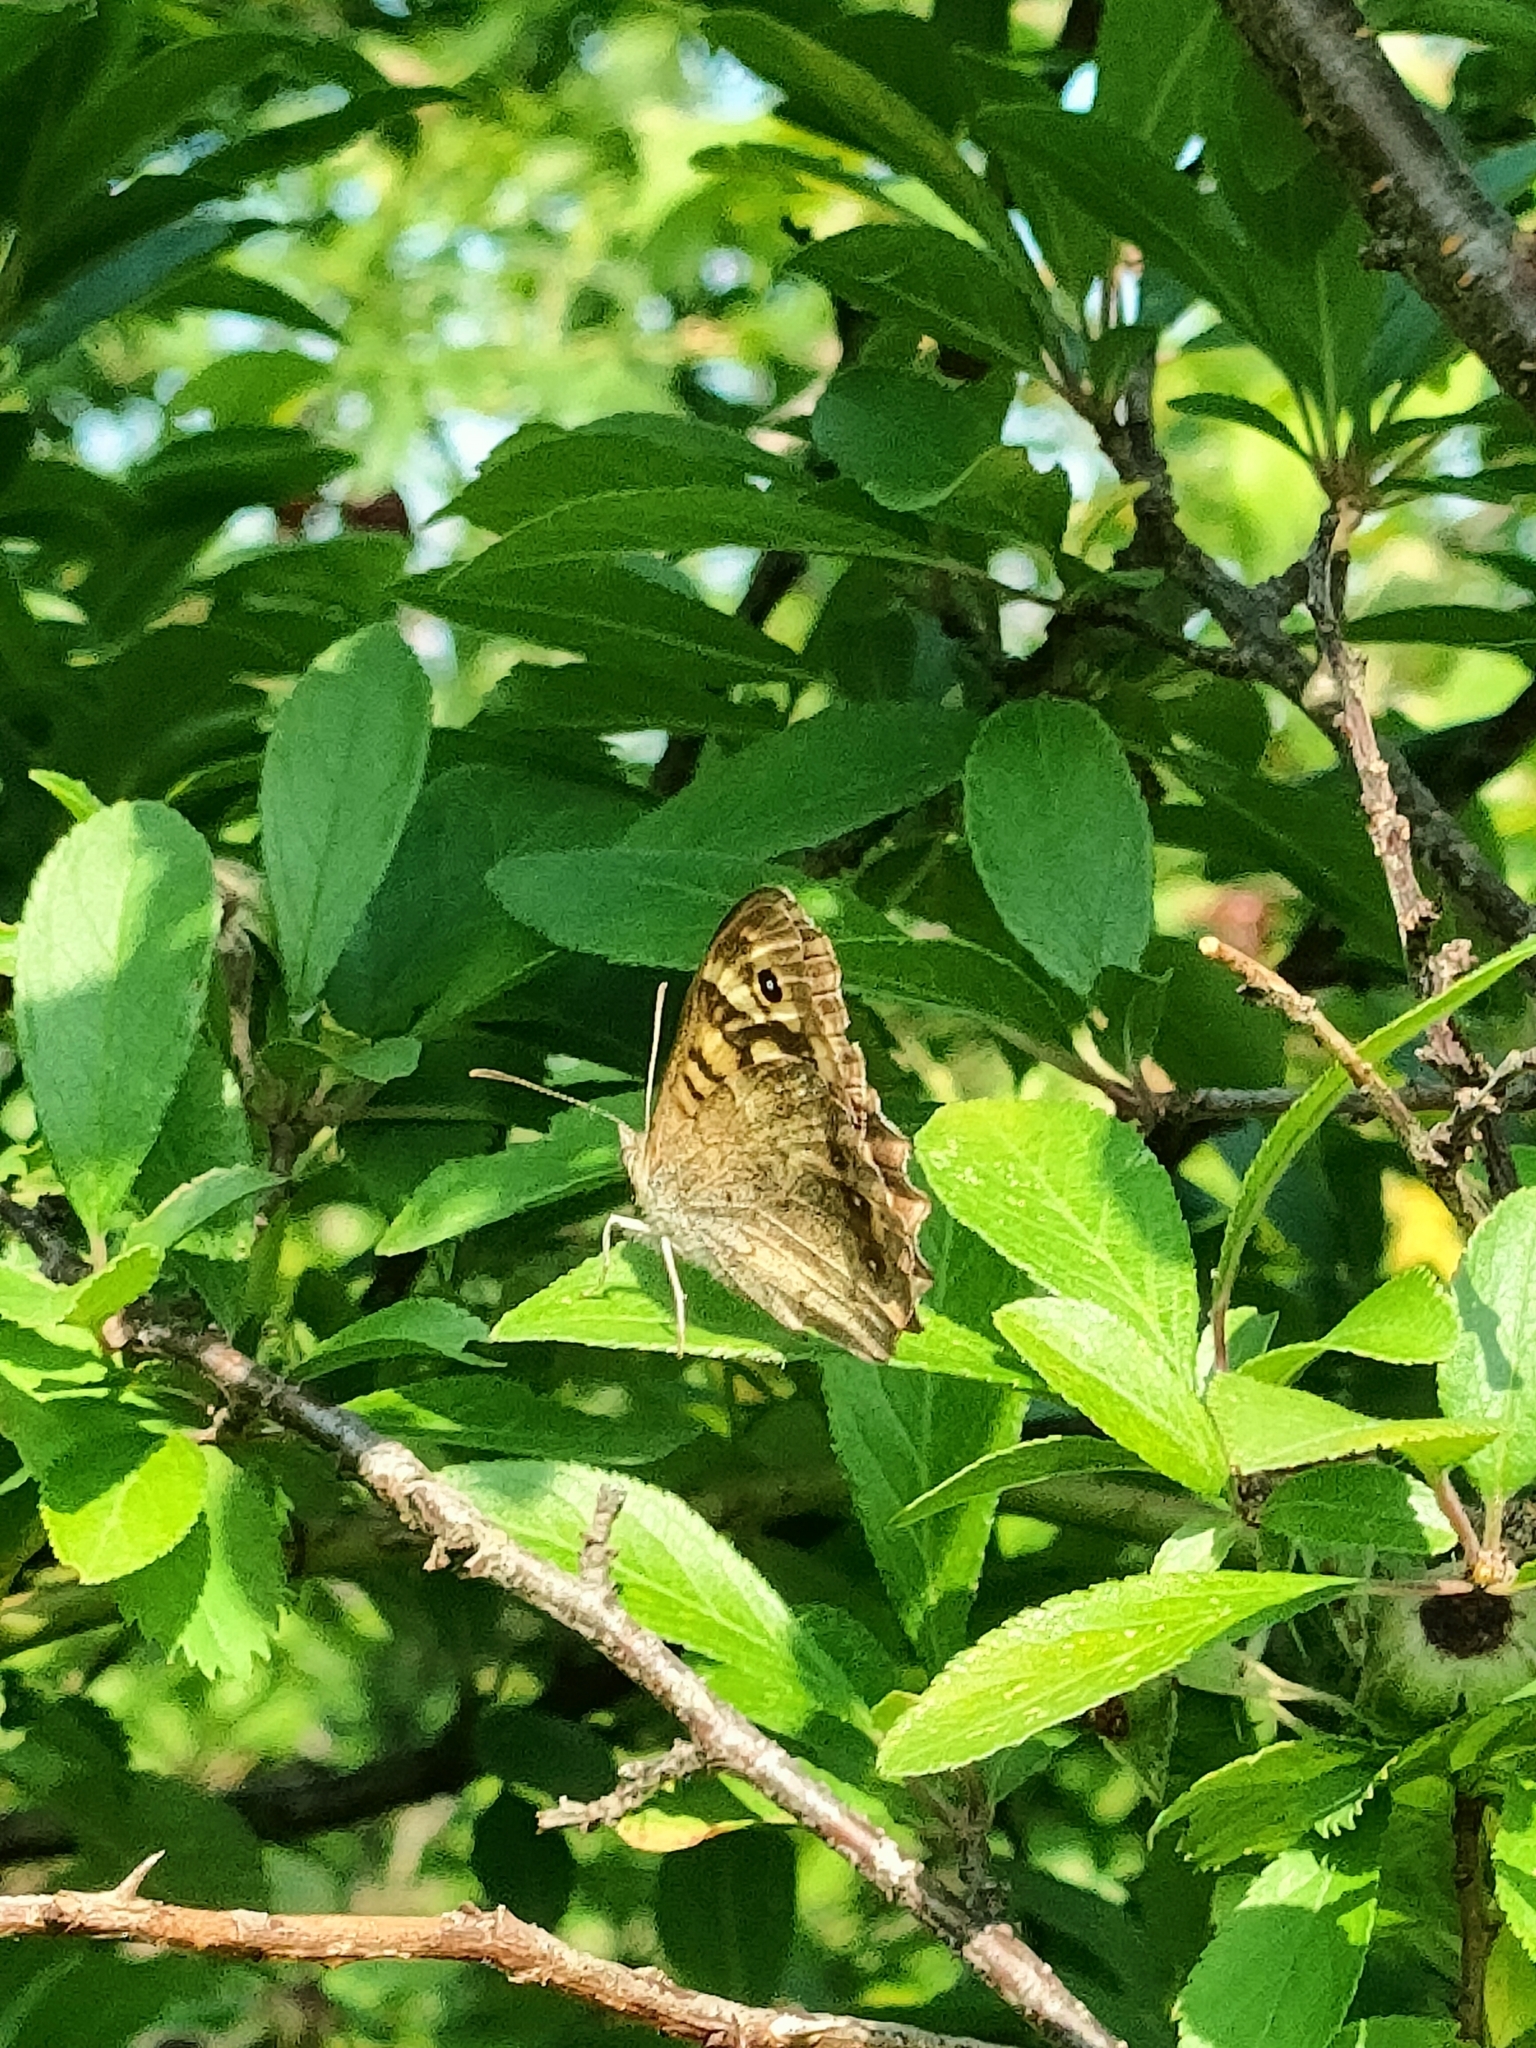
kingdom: Animalia
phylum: Arthropoda
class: Insecta
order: Lepidoptera
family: Nymphalidae
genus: Pararge
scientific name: Pararge aegeria
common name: Speckled wood
